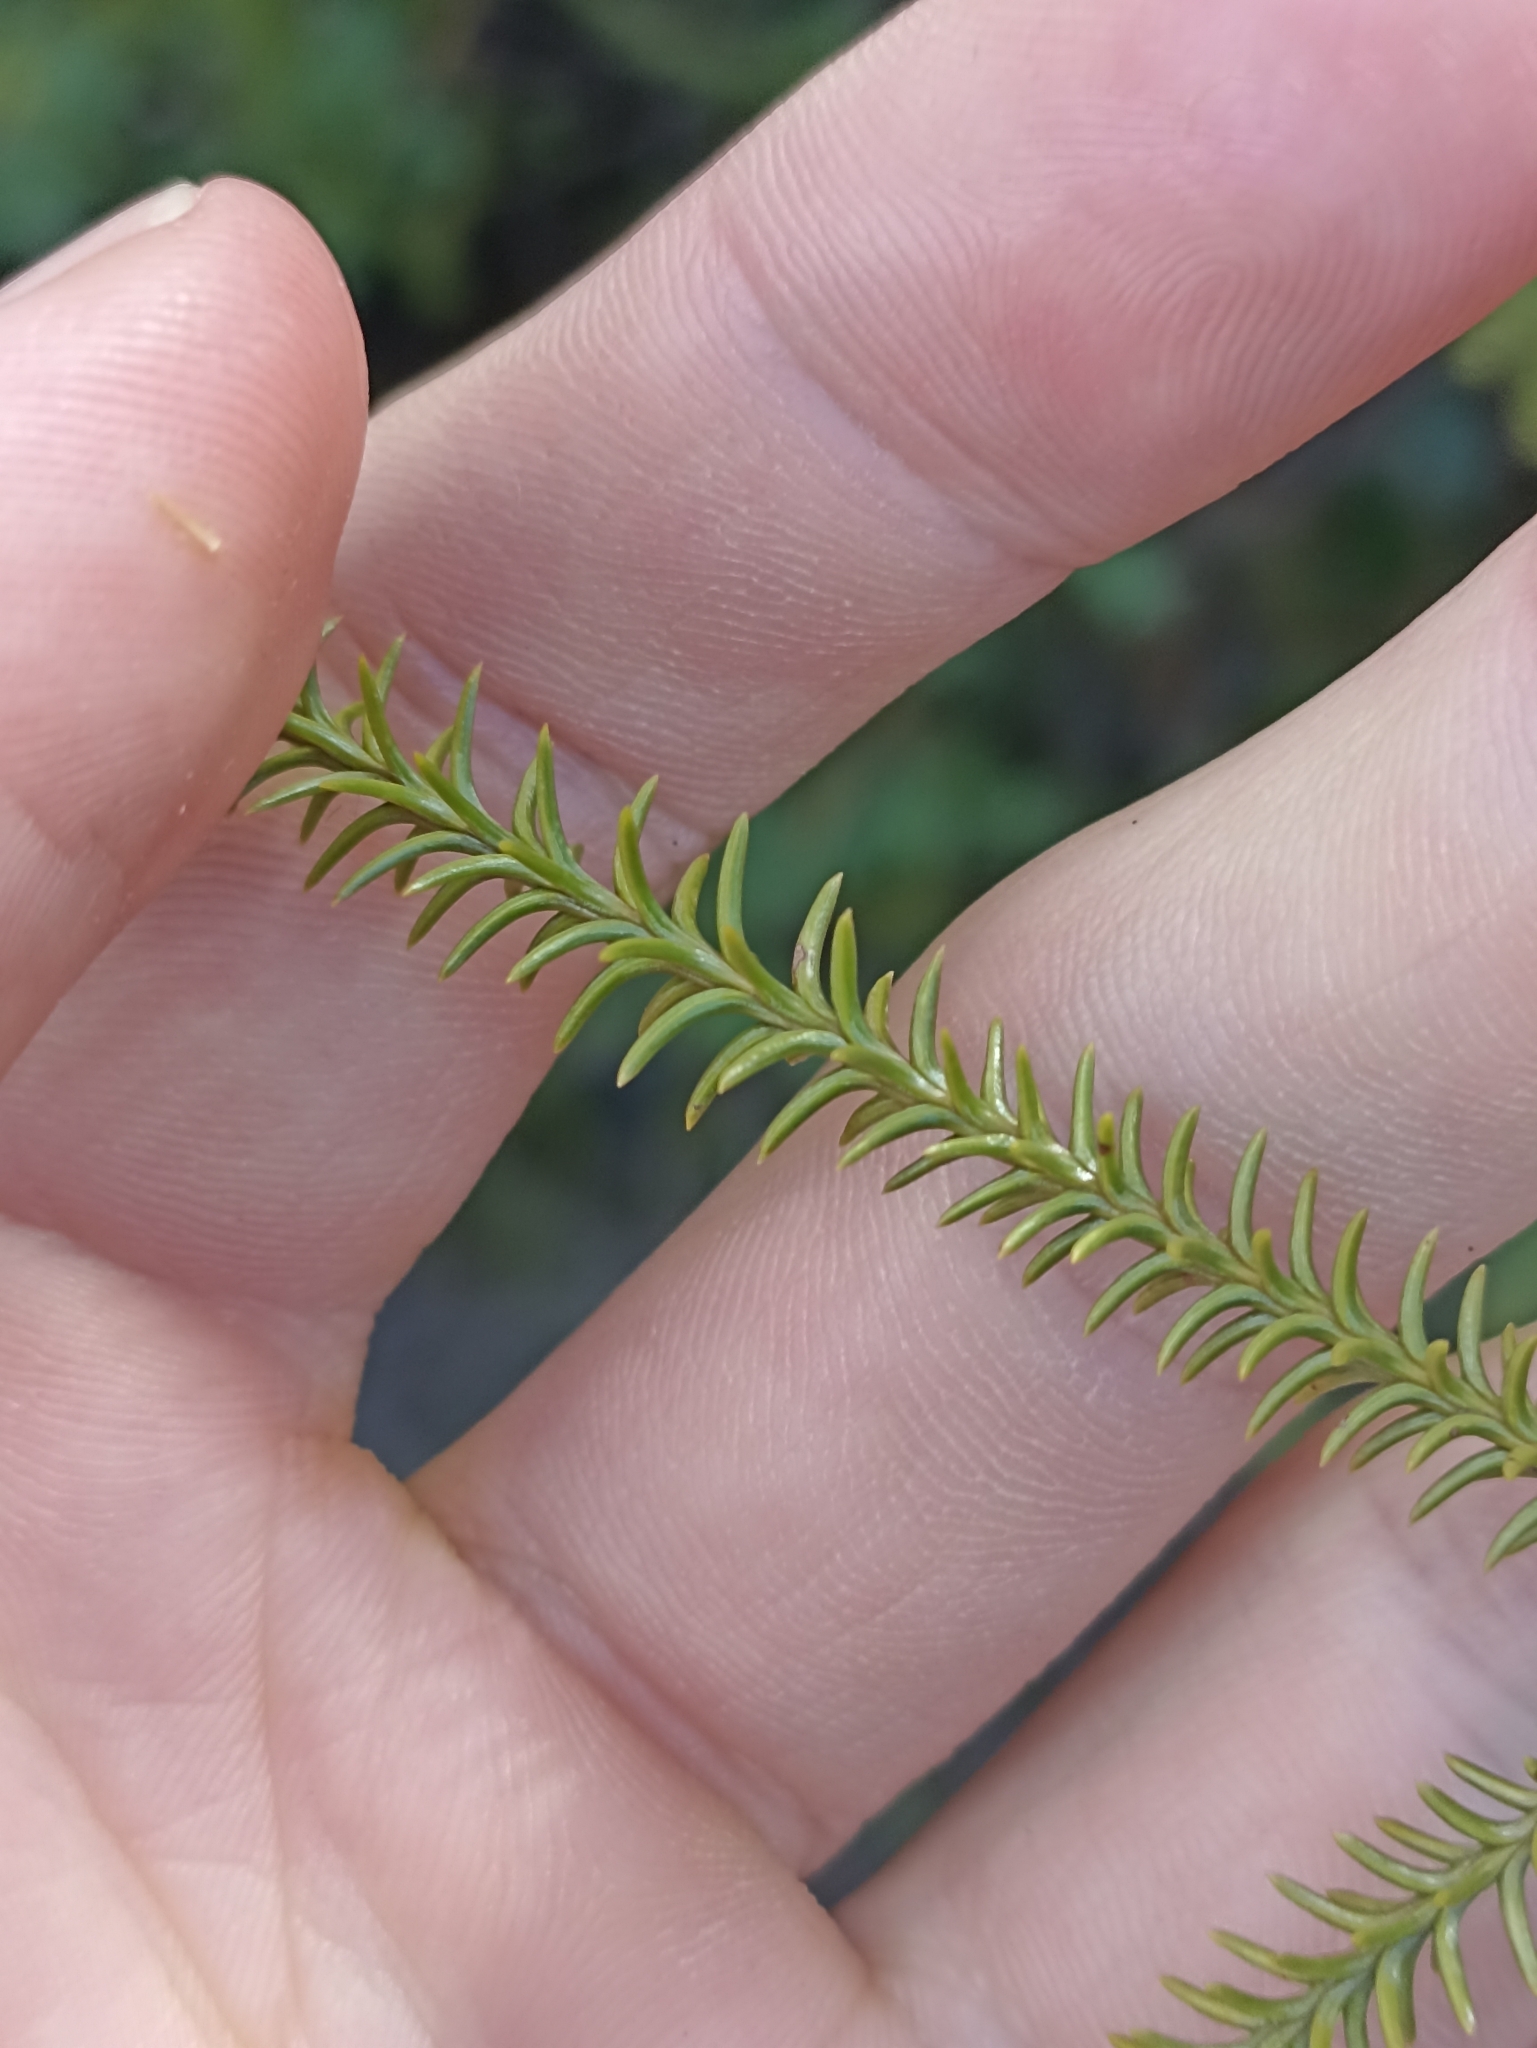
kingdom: Plantae
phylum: Tracheophyta
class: Pinopsida
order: Pinales
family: Podocarpaceae
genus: Dacrydium
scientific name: Dacrydium cupressinum
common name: Red pine
